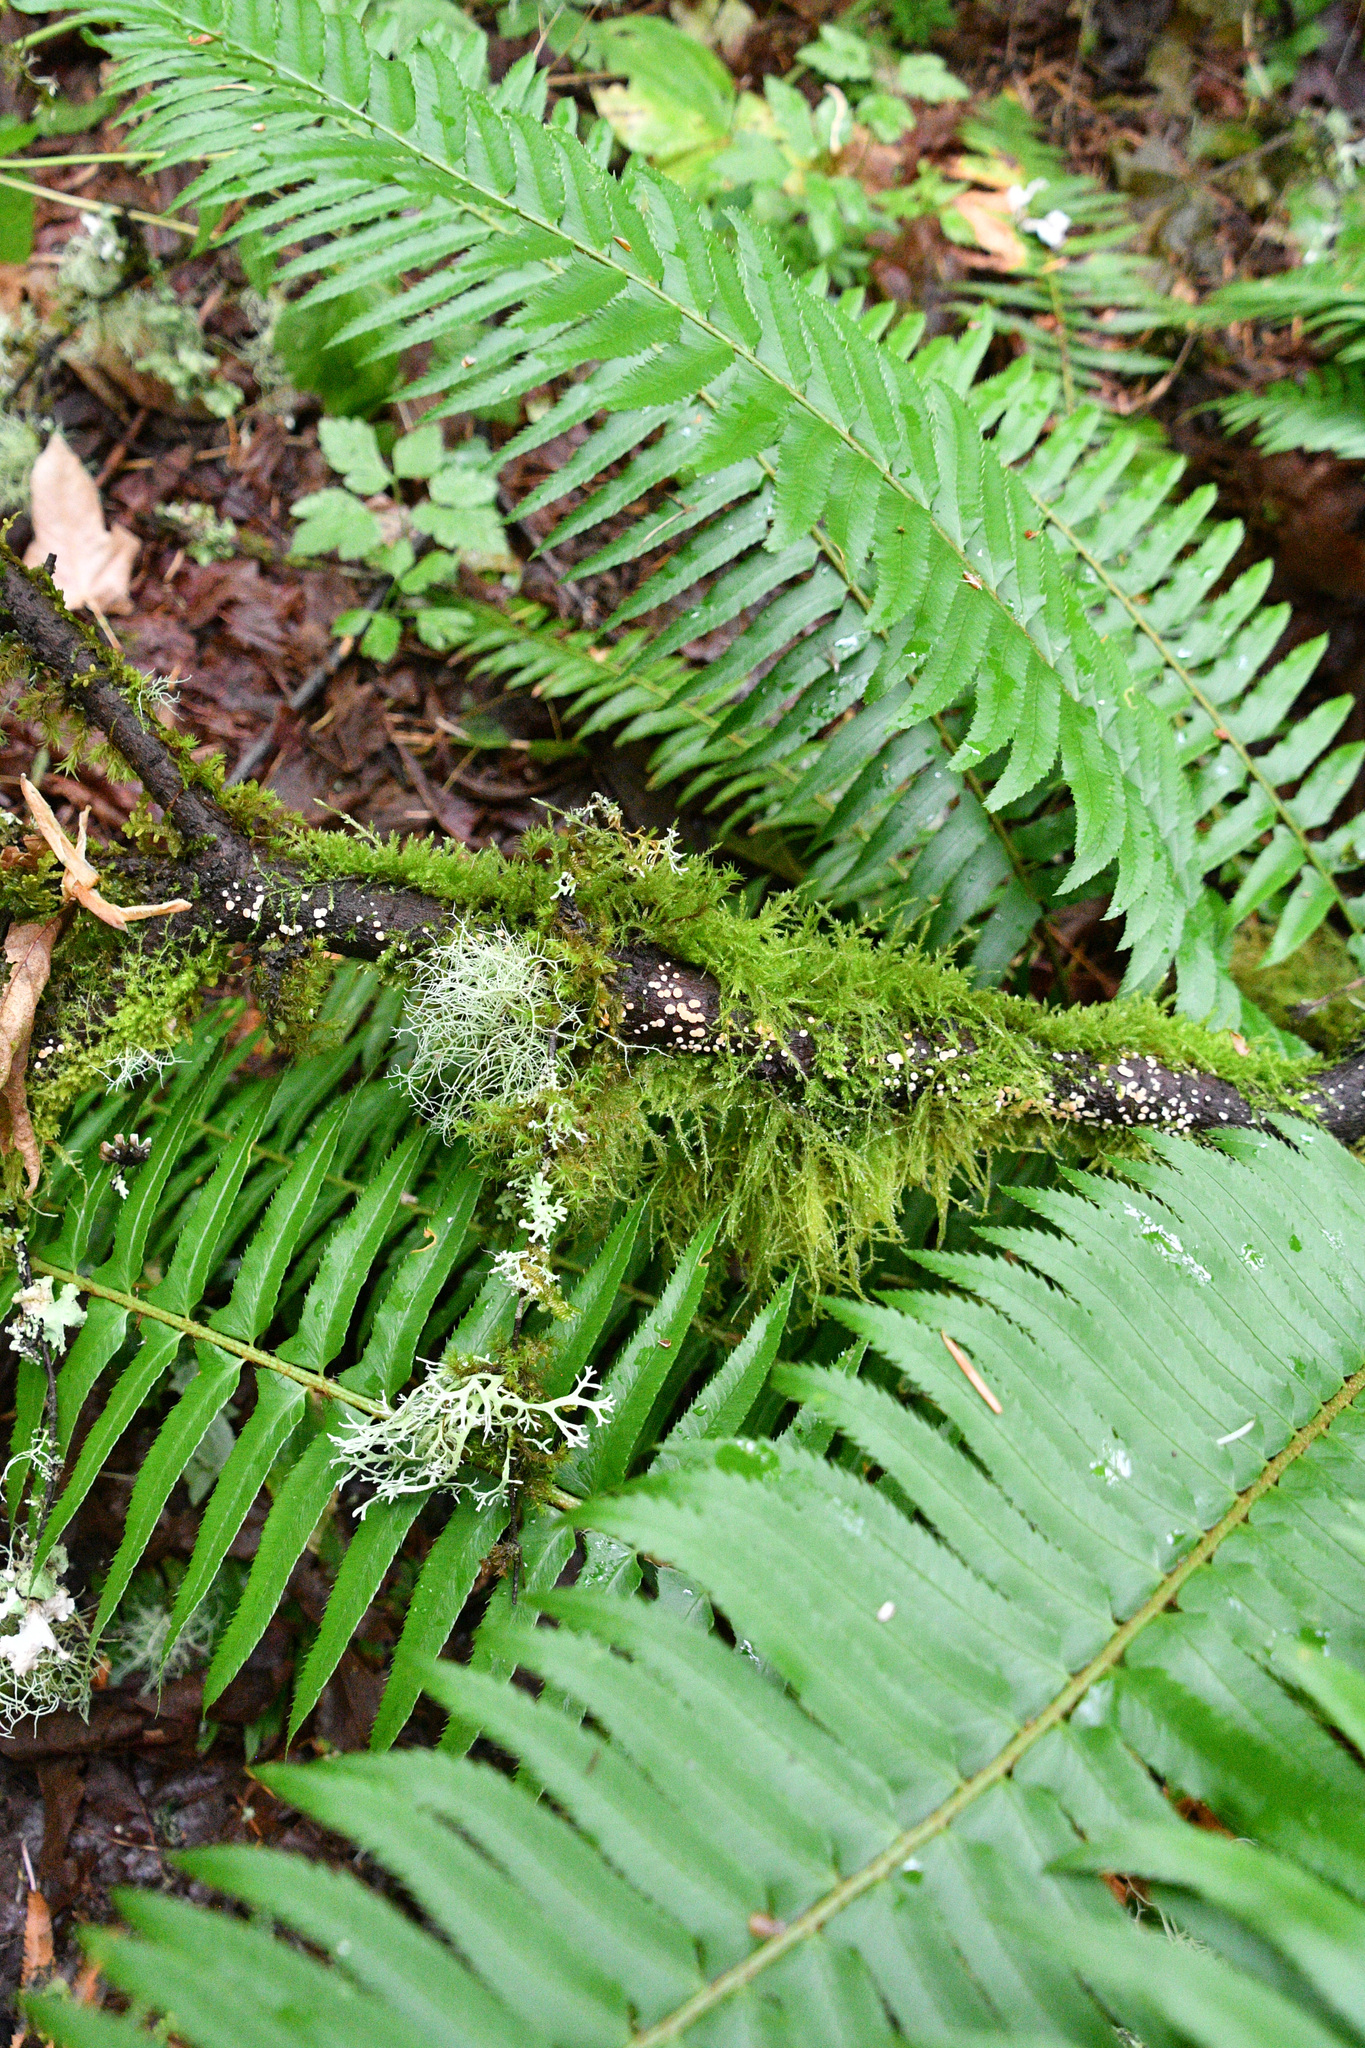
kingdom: Plantae
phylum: Tracheophyta
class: Polypodiopsida
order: Polypodiales
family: Dryopteridaceae
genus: Polystichum
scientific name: Polystichum munitum
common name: Western sword-fern
